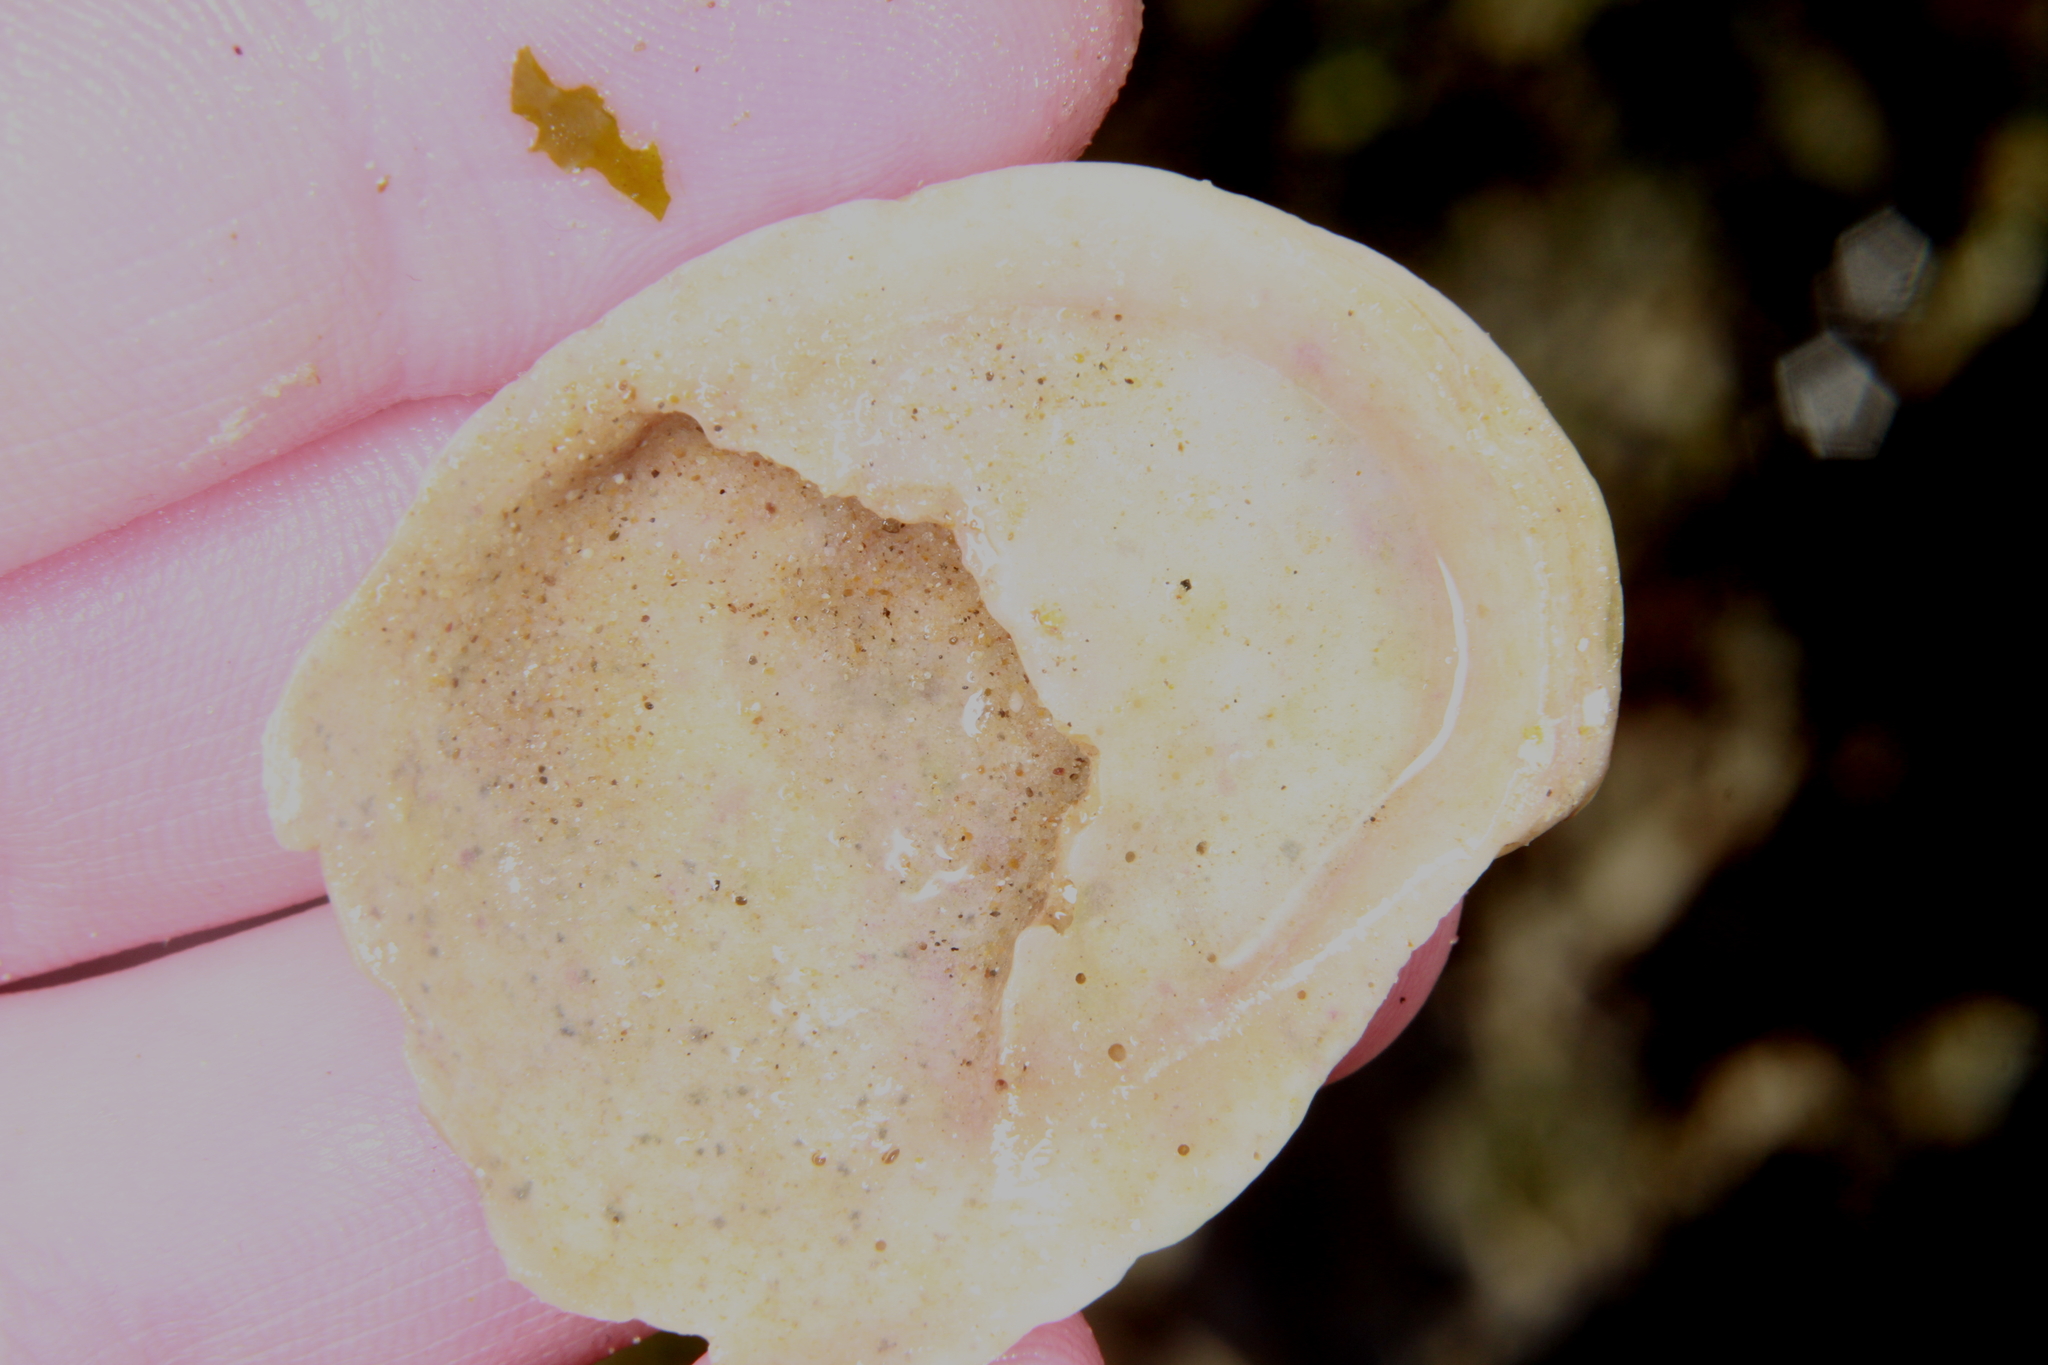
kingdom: Animalia
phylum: Mollusca
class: Gastropoda
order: Littorinimorpha
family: Calyptraeidae
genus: Crepidula
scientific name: Crepidula fornicata
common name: Slipper limpet
